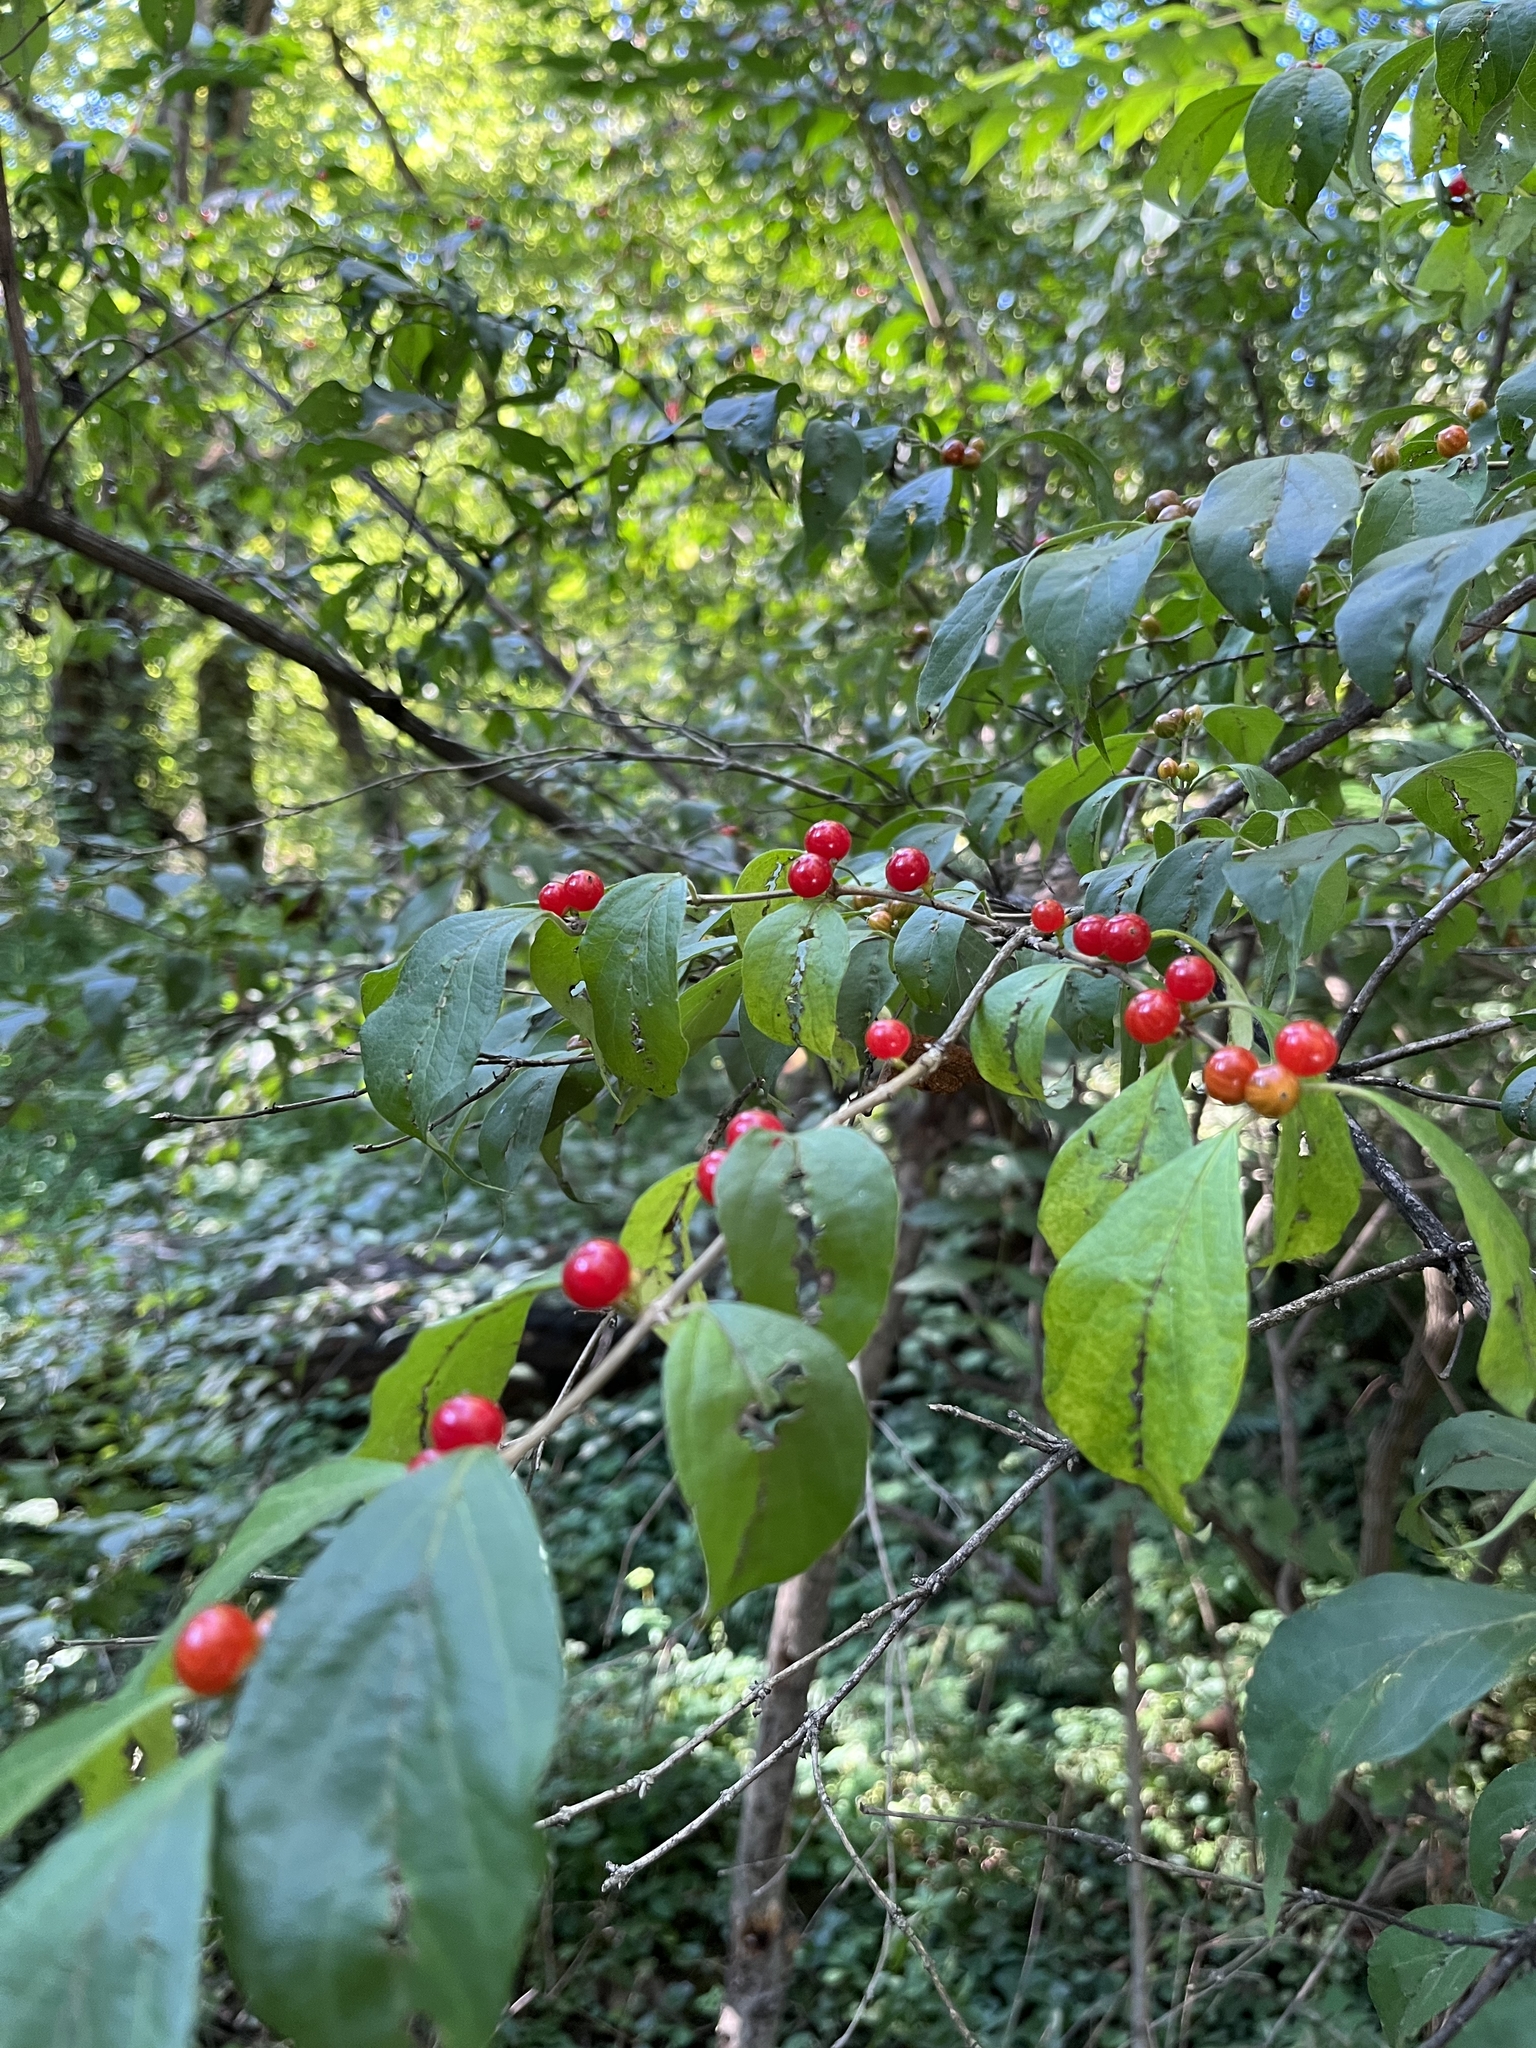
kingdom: Plantae
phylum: Tracheophyta
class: Magnoliopsida
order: Dipsacales
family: Caprifoliaceae
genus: Lonicera
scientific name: Lonicera maackii
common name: Amur honeysuckle
